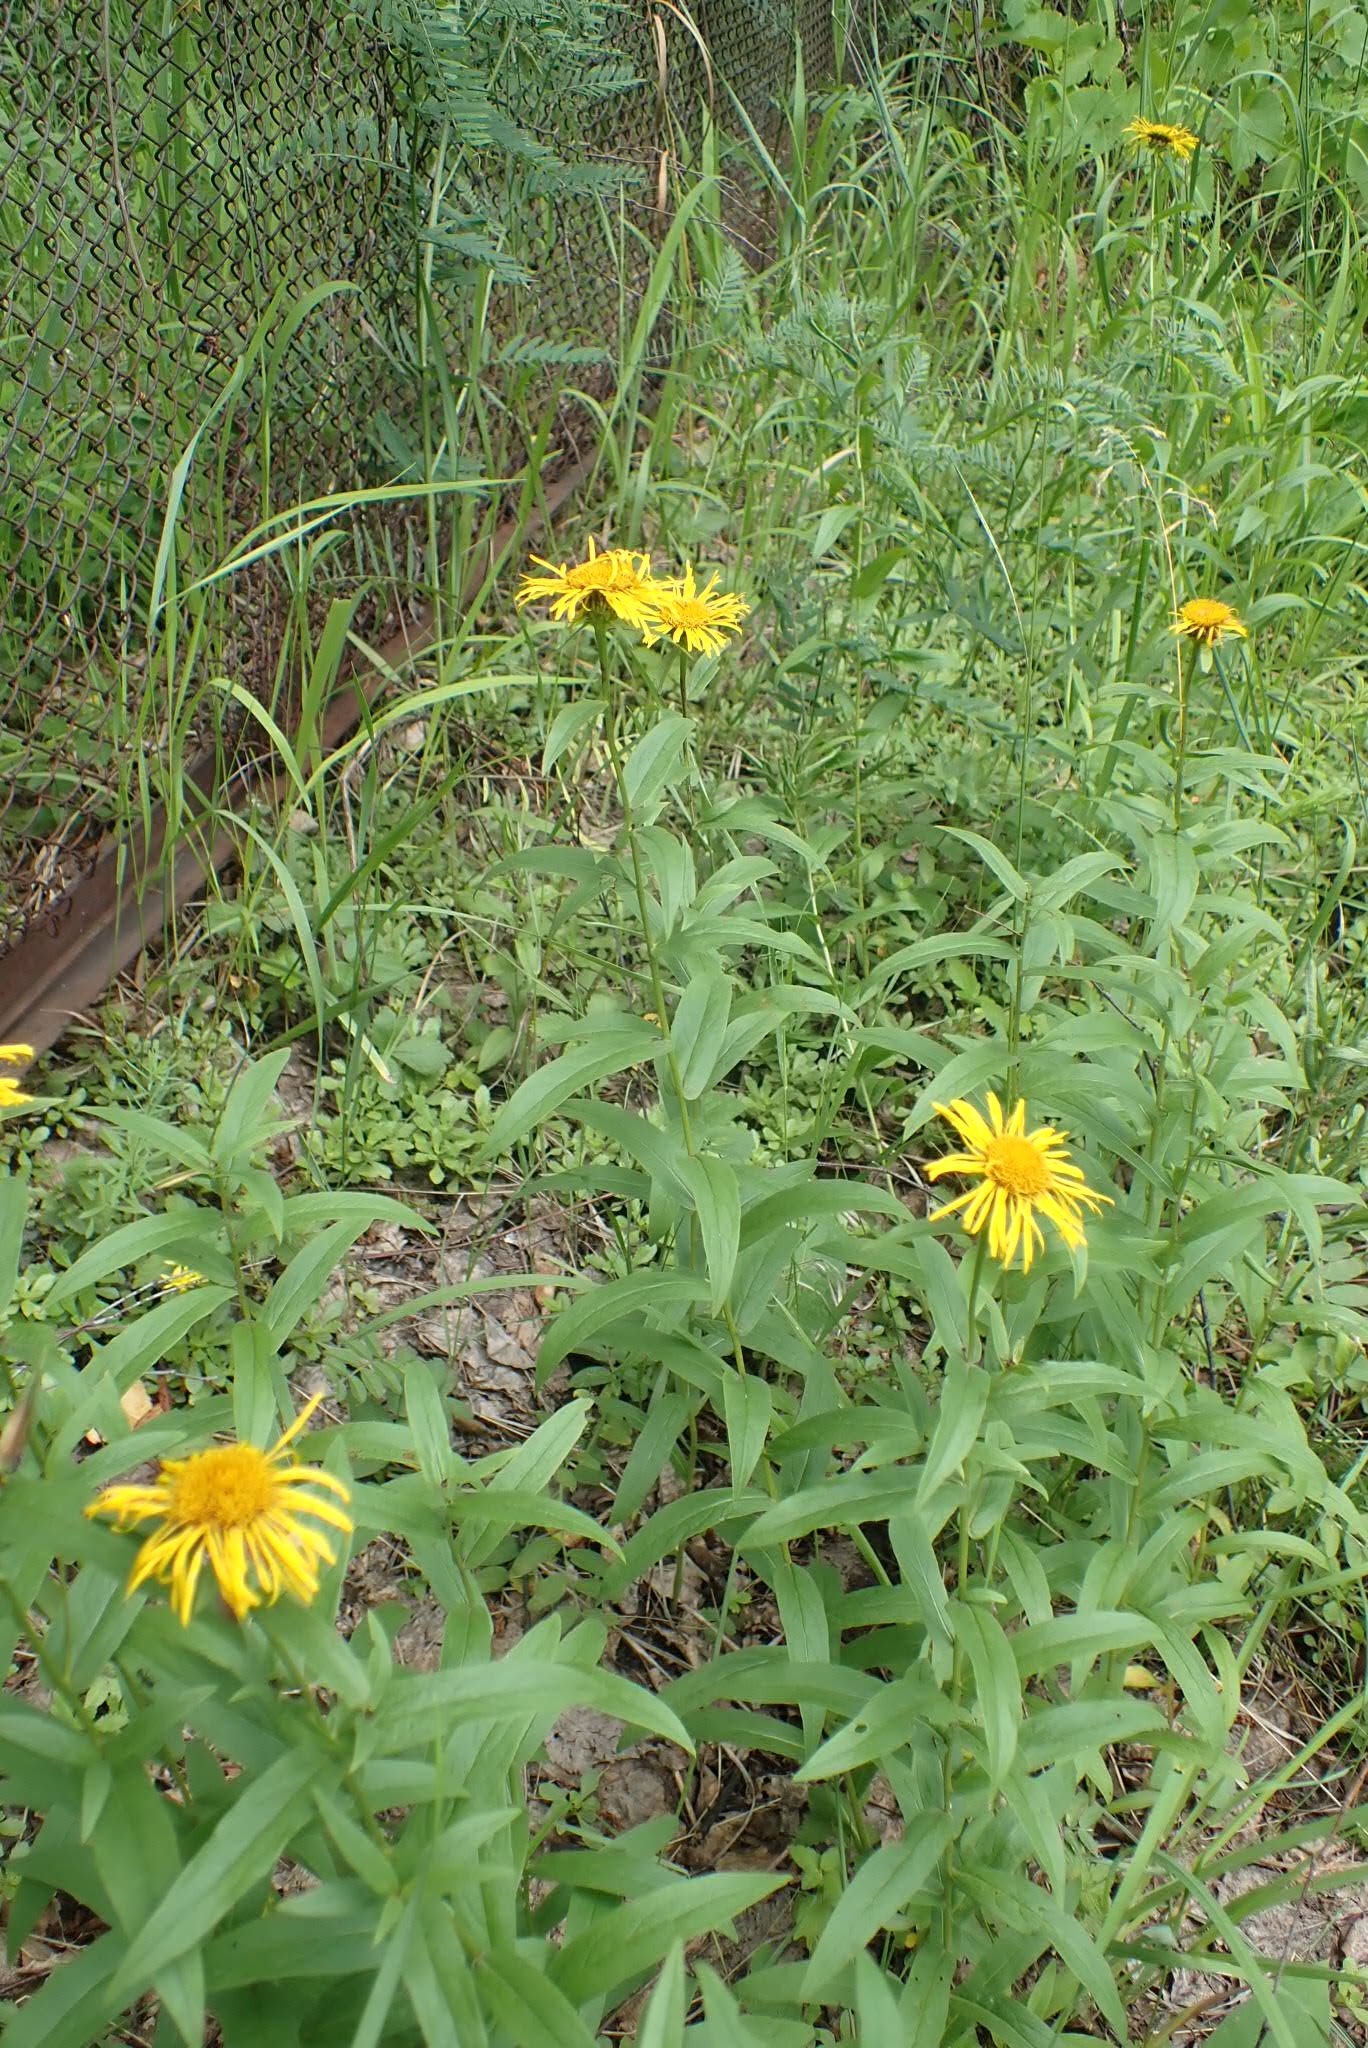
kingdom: Plantae
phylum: Tracheophyta
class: Magnoliopsida
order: Asterales
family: Asteraceae
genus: Pentanema
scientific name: Pentanema salicinum
